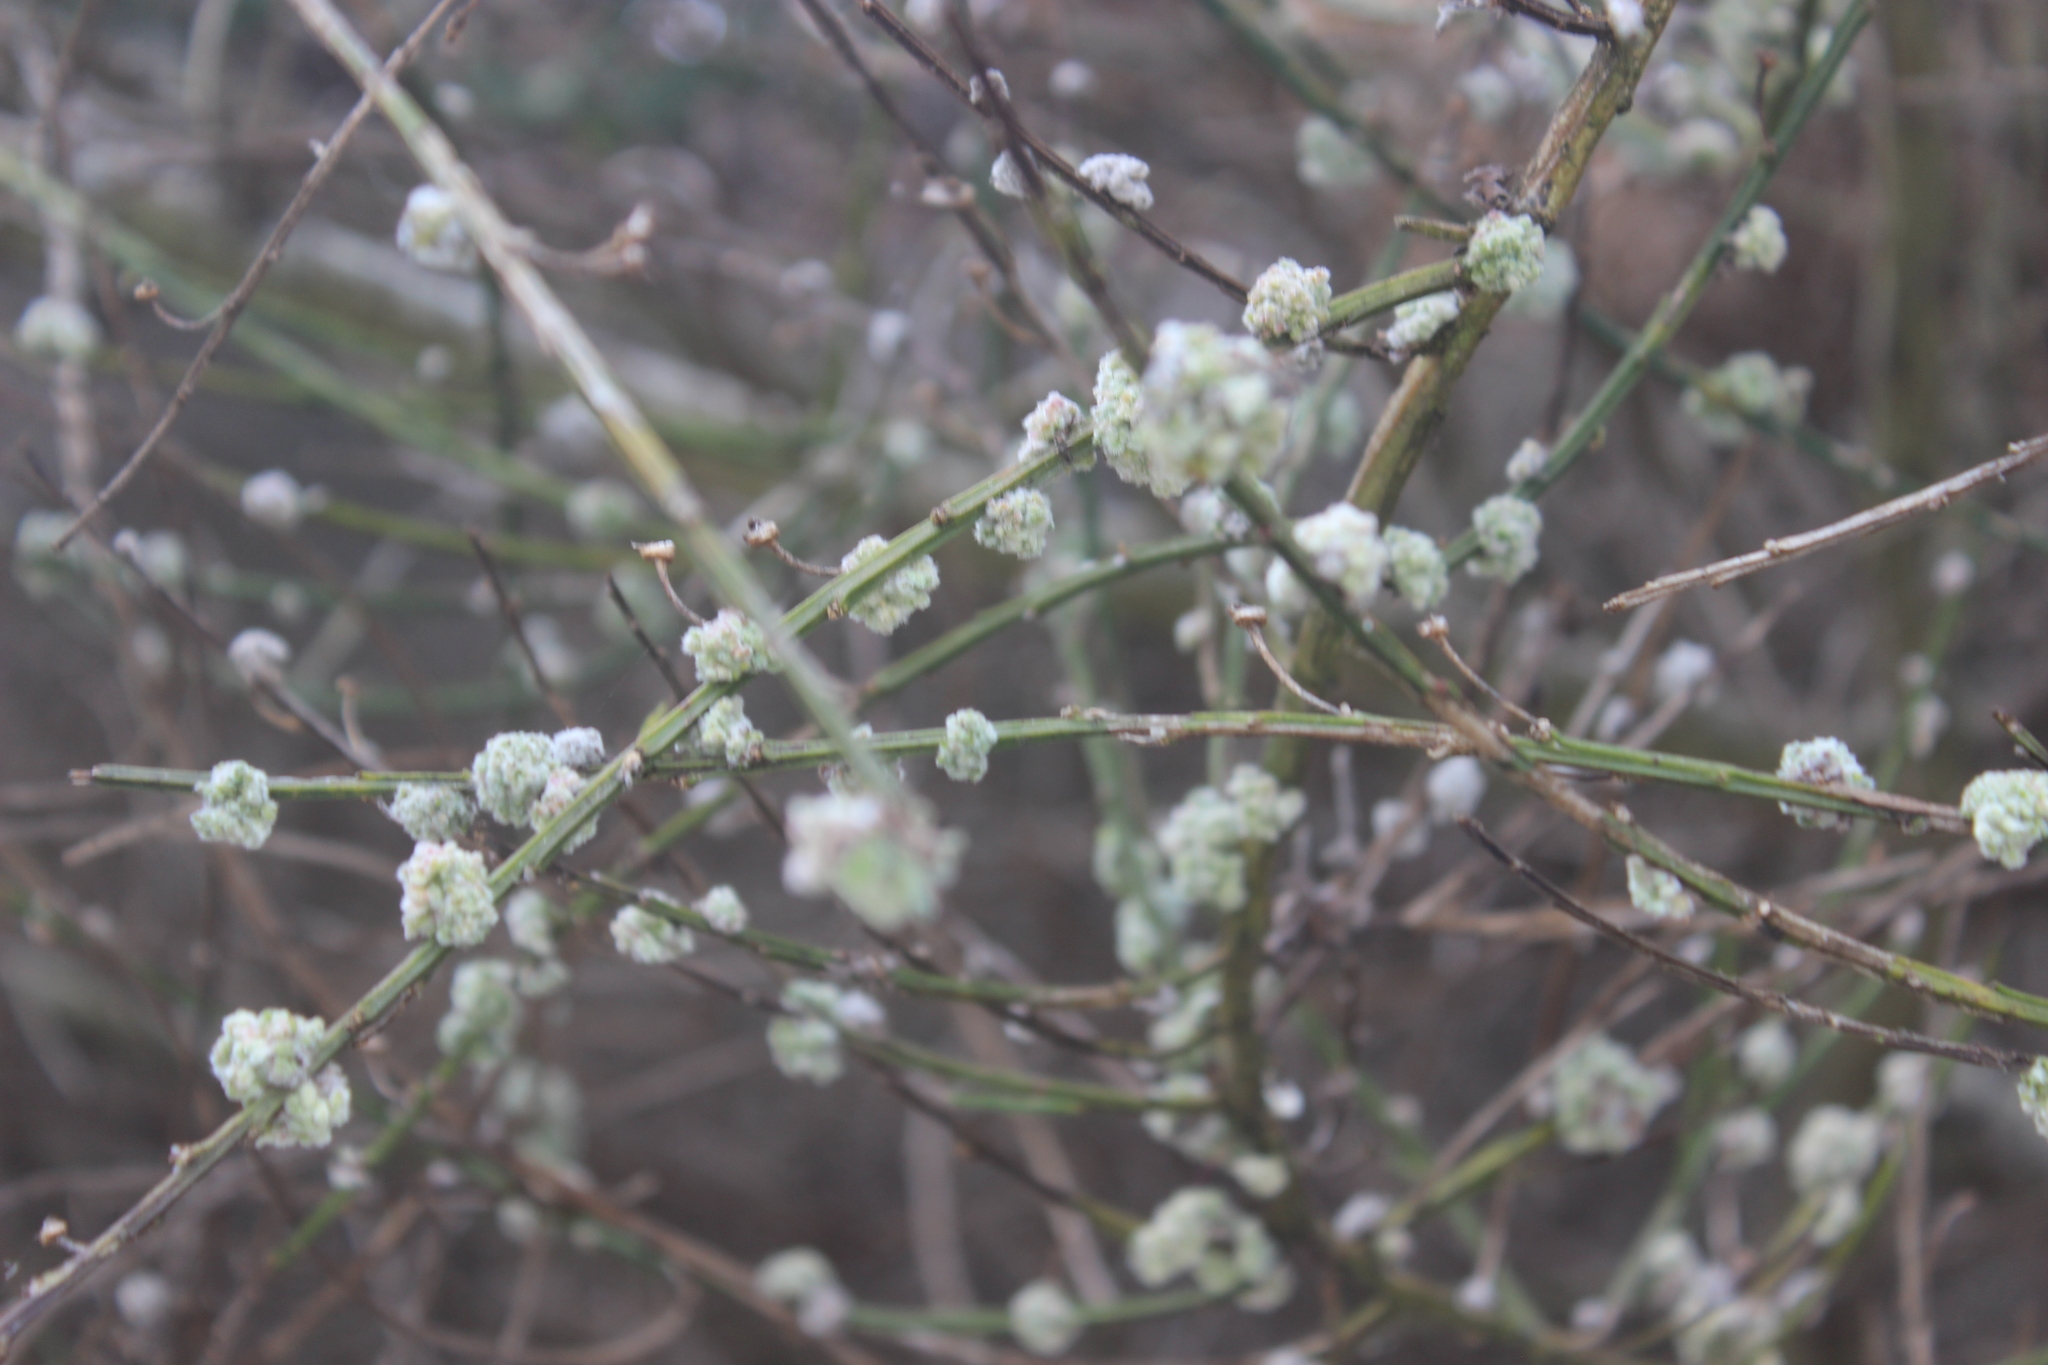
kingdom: Animalia
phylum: Arthropoda
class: Arachnida
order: Trombidiformes
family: Eriophyidae
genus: Aceria
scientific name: Aceria genistae
